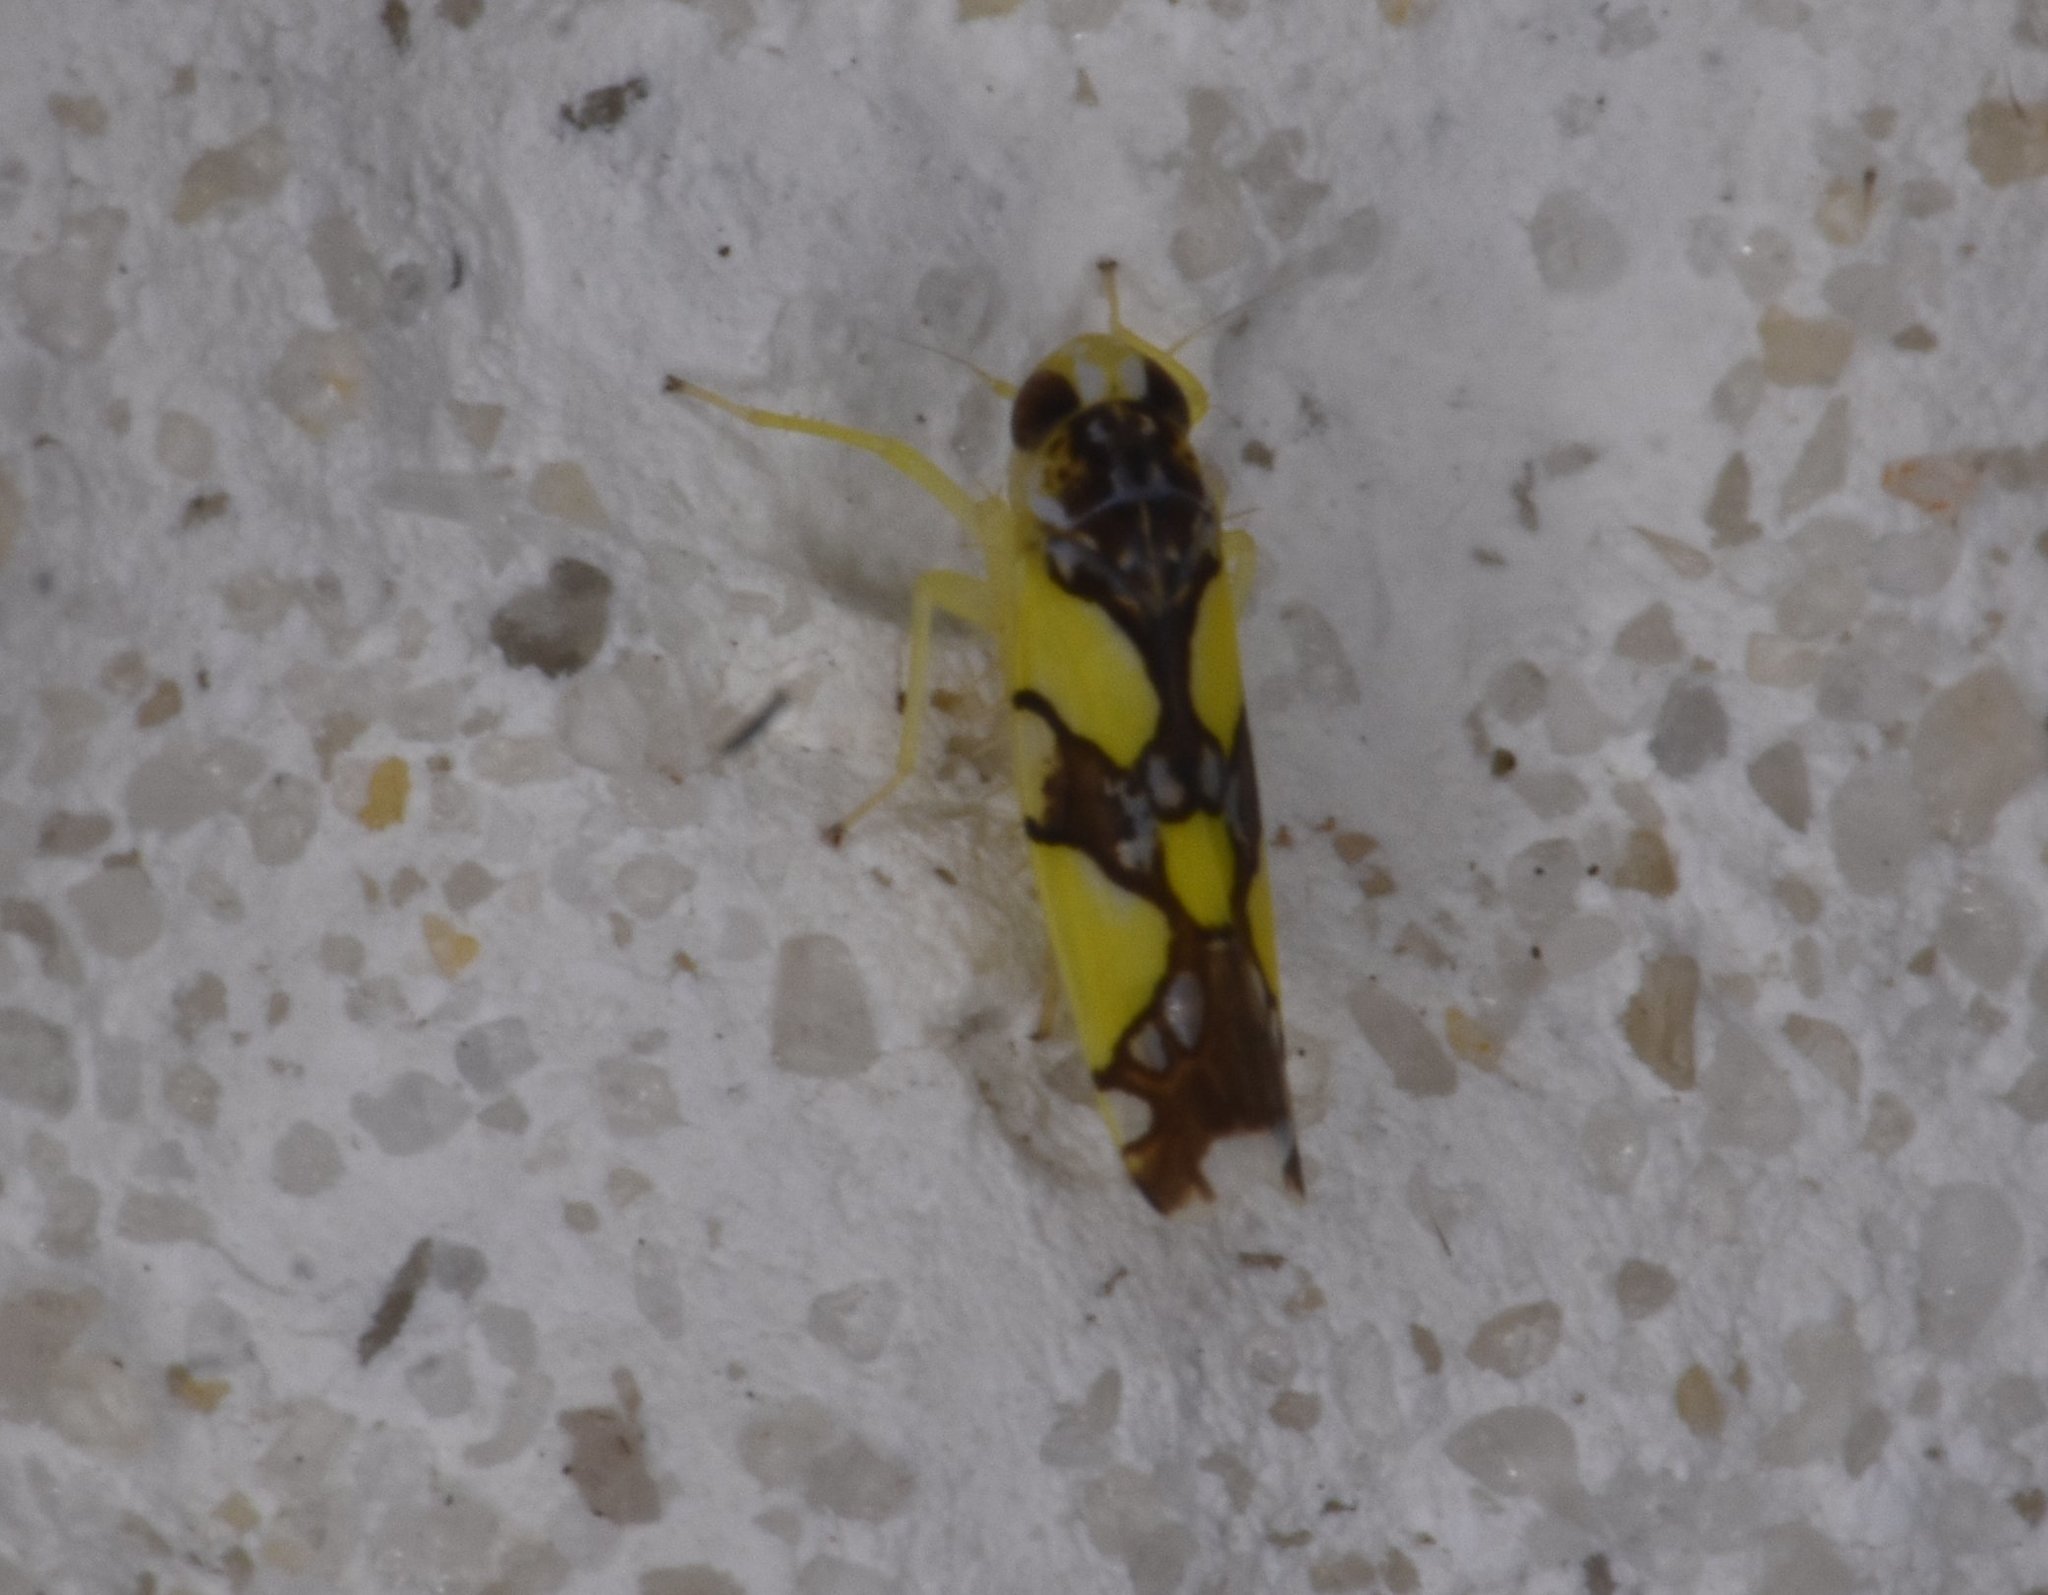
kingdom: Animalia
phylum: Arthropoda
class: Insecta
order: Hemiptera
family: Cicadellidae
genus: Protalebrella
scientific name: Protalebrella brasiliensis
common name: Brasilian leafhopper
